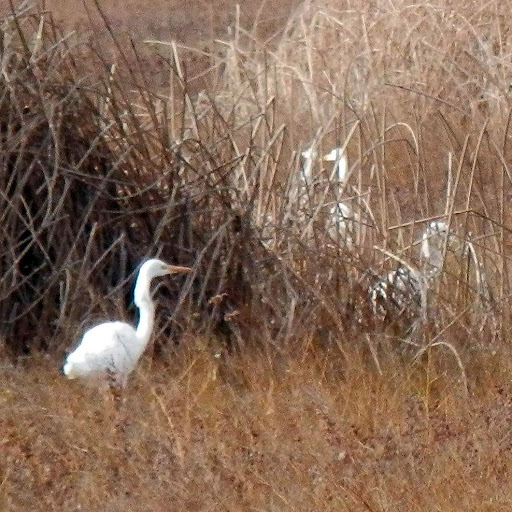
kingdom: Animalia
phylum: Chordata
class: Aves
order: Pelecaniformes
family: Ardeidae
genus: Ardea
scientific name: Ardea alba
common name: Great egret
